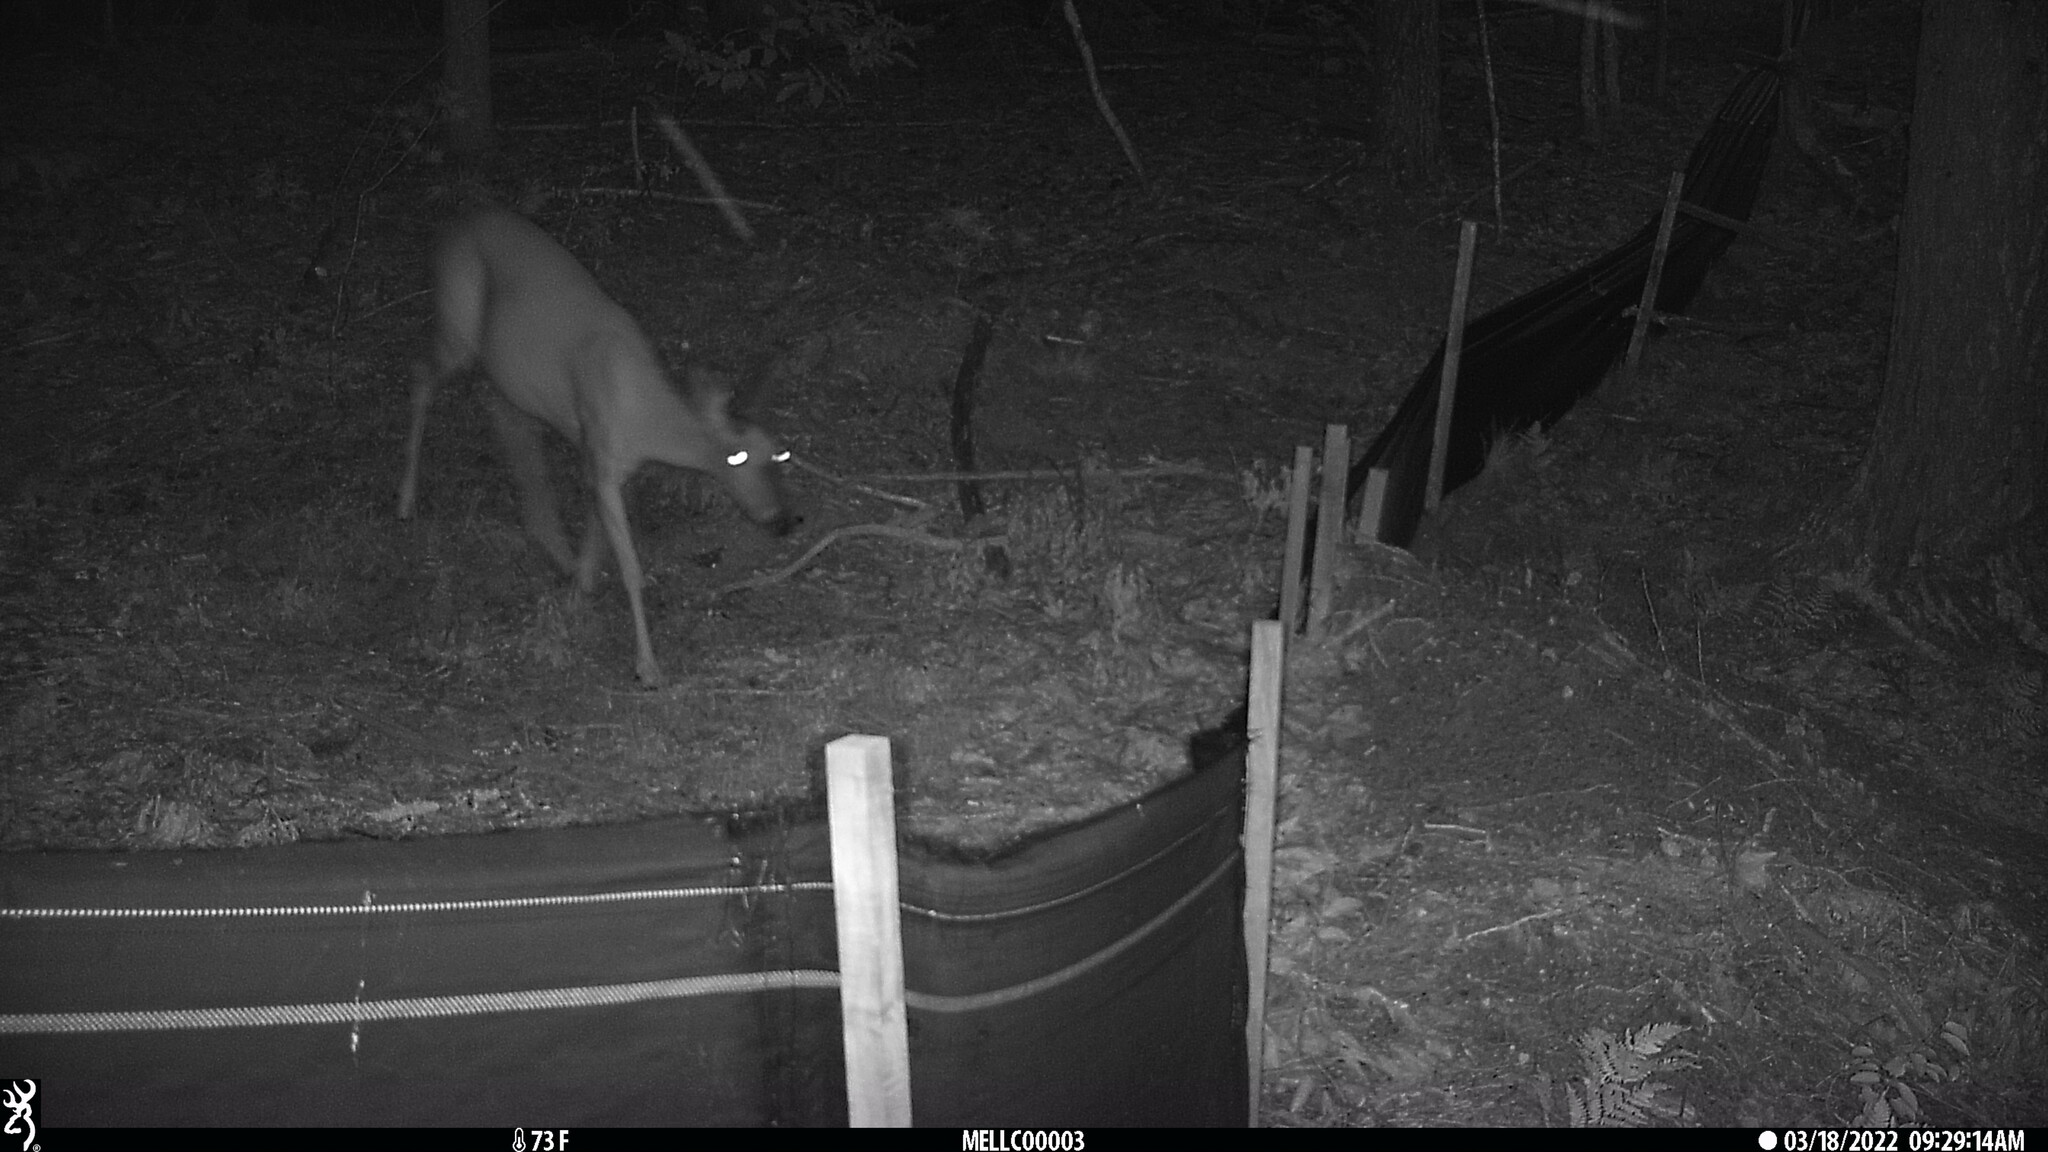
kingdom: Animalia
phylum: Chordata
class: Mammalia
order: Artiodactyla
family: Cervidae
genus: Odocoileus
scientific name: Odocoileus virginianus
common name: White-tailed deer
